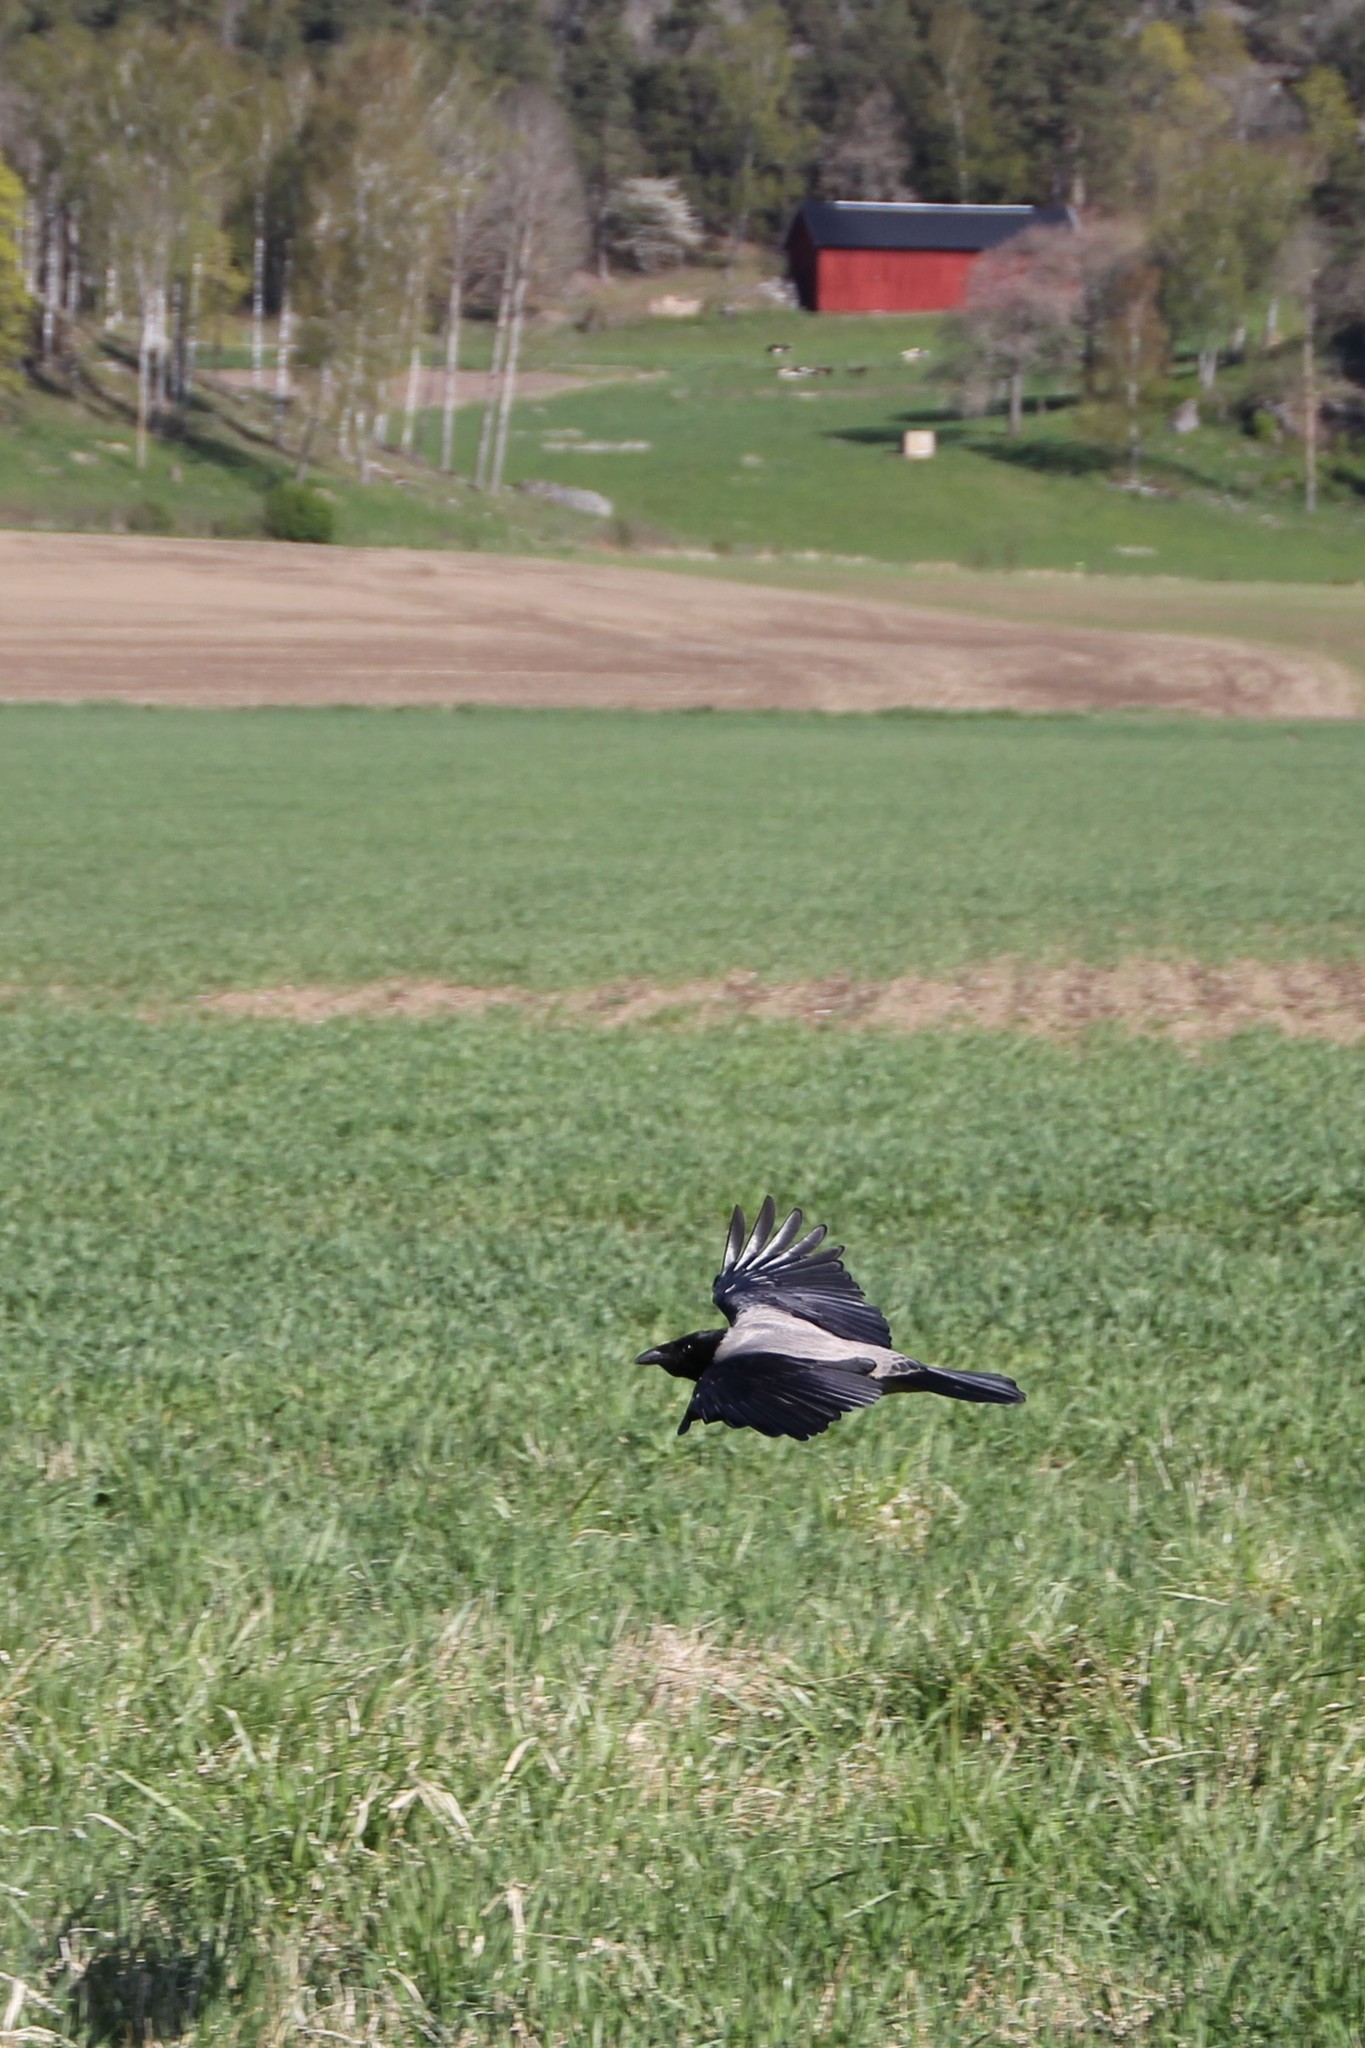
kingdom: Animalia
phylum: Chordata
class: Aves
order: Passeriformes
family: Corvidae
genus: Corvus
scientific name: Corvus cornix
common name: Hooded crow
